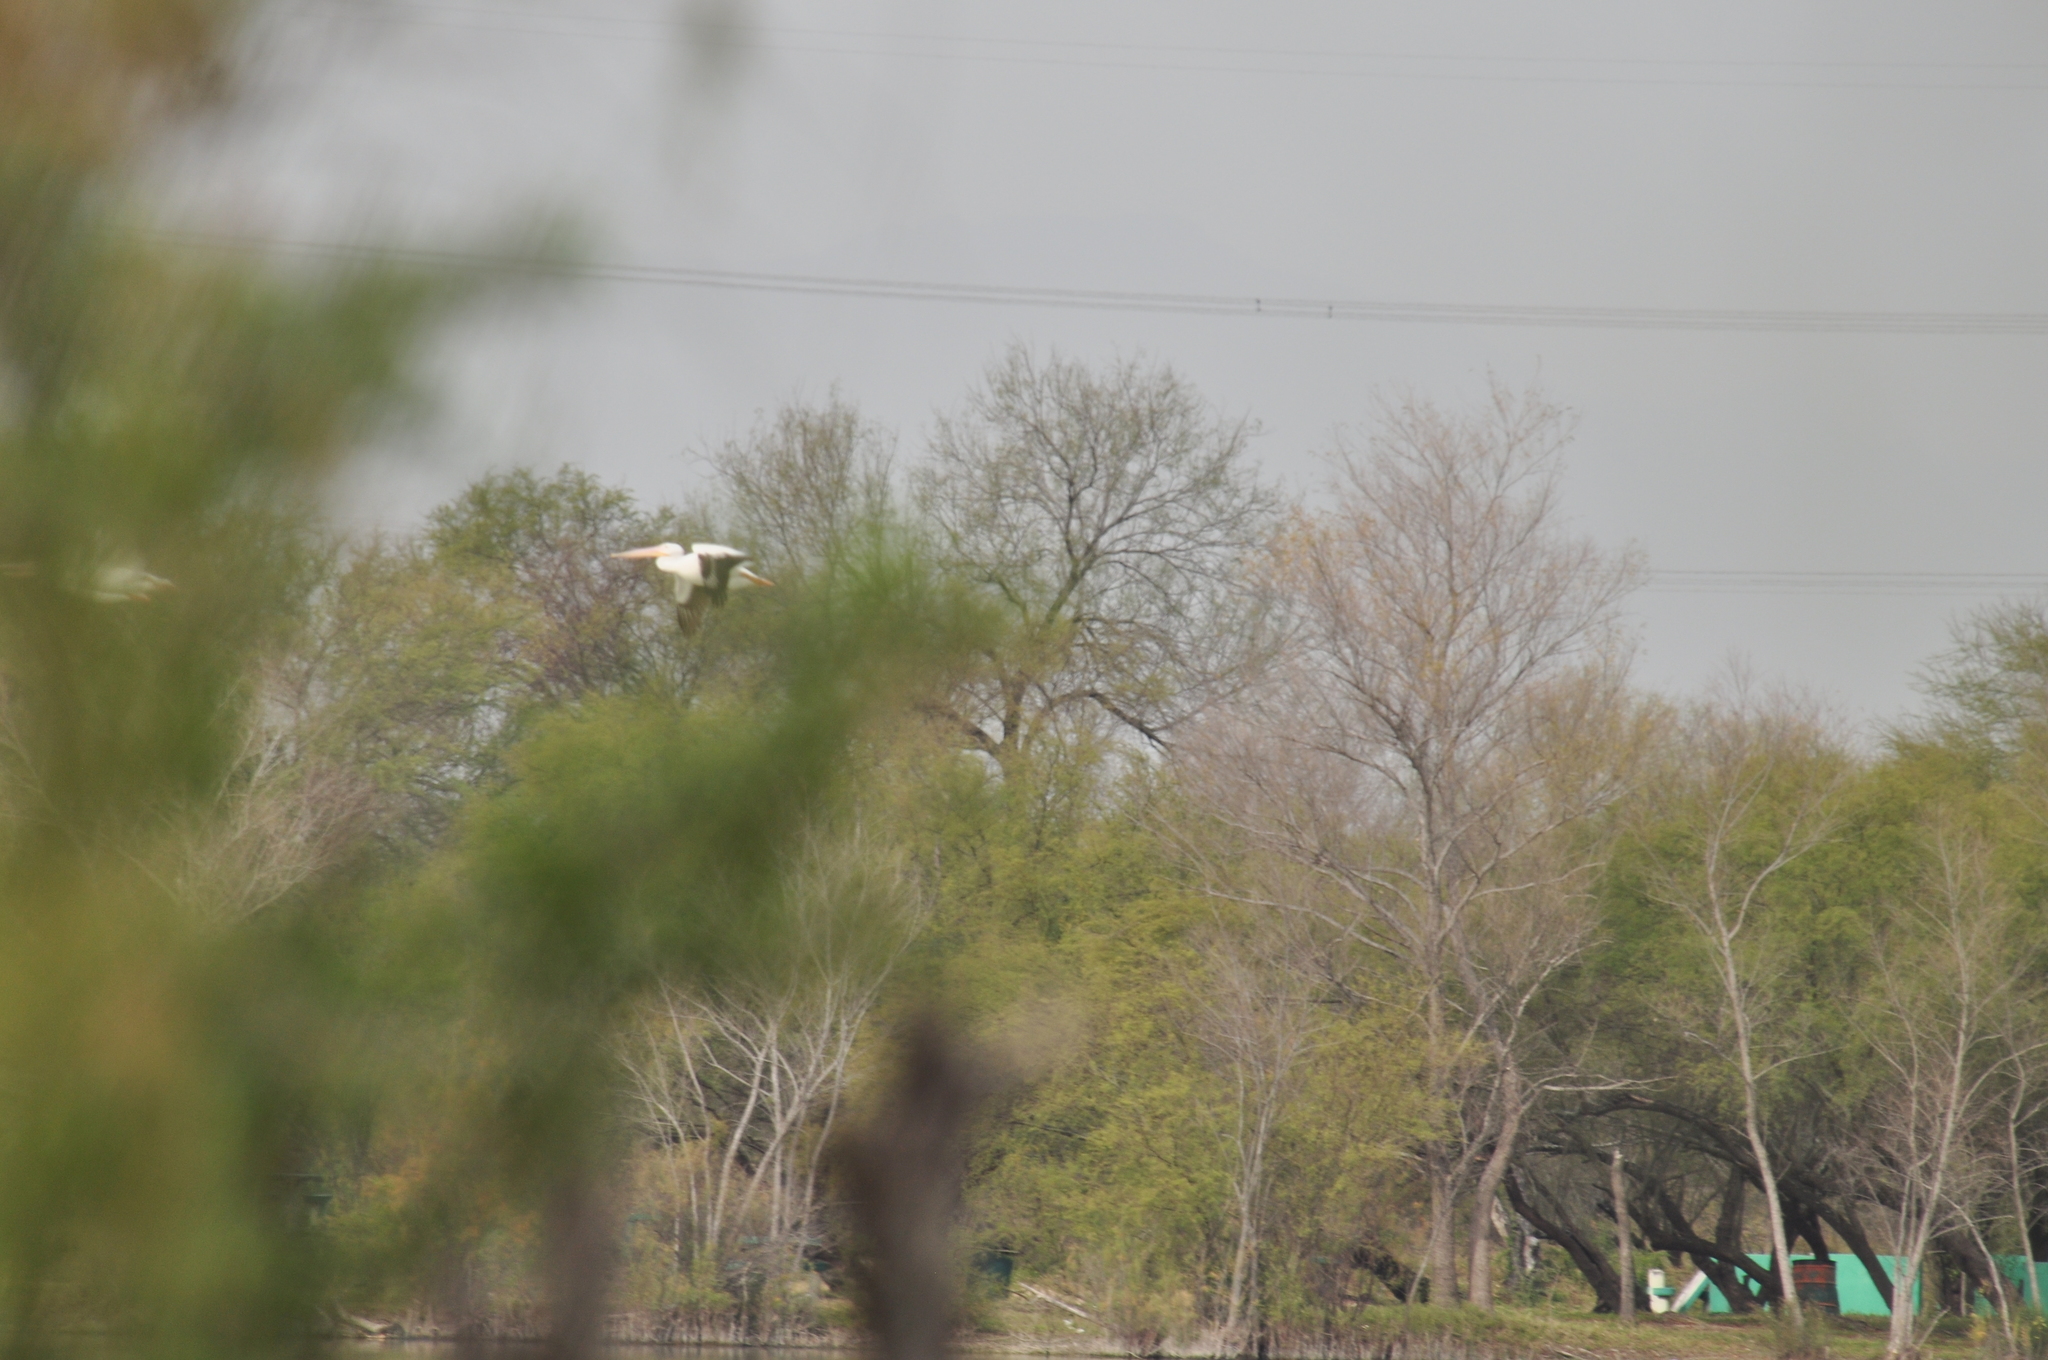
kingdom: Animalia
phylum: Chordata
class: Aves
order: Pelecaniformes
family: Pelecanidae
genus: Pelecanus
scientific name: Pelecanus erythrorhynchos
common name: American white pelican
